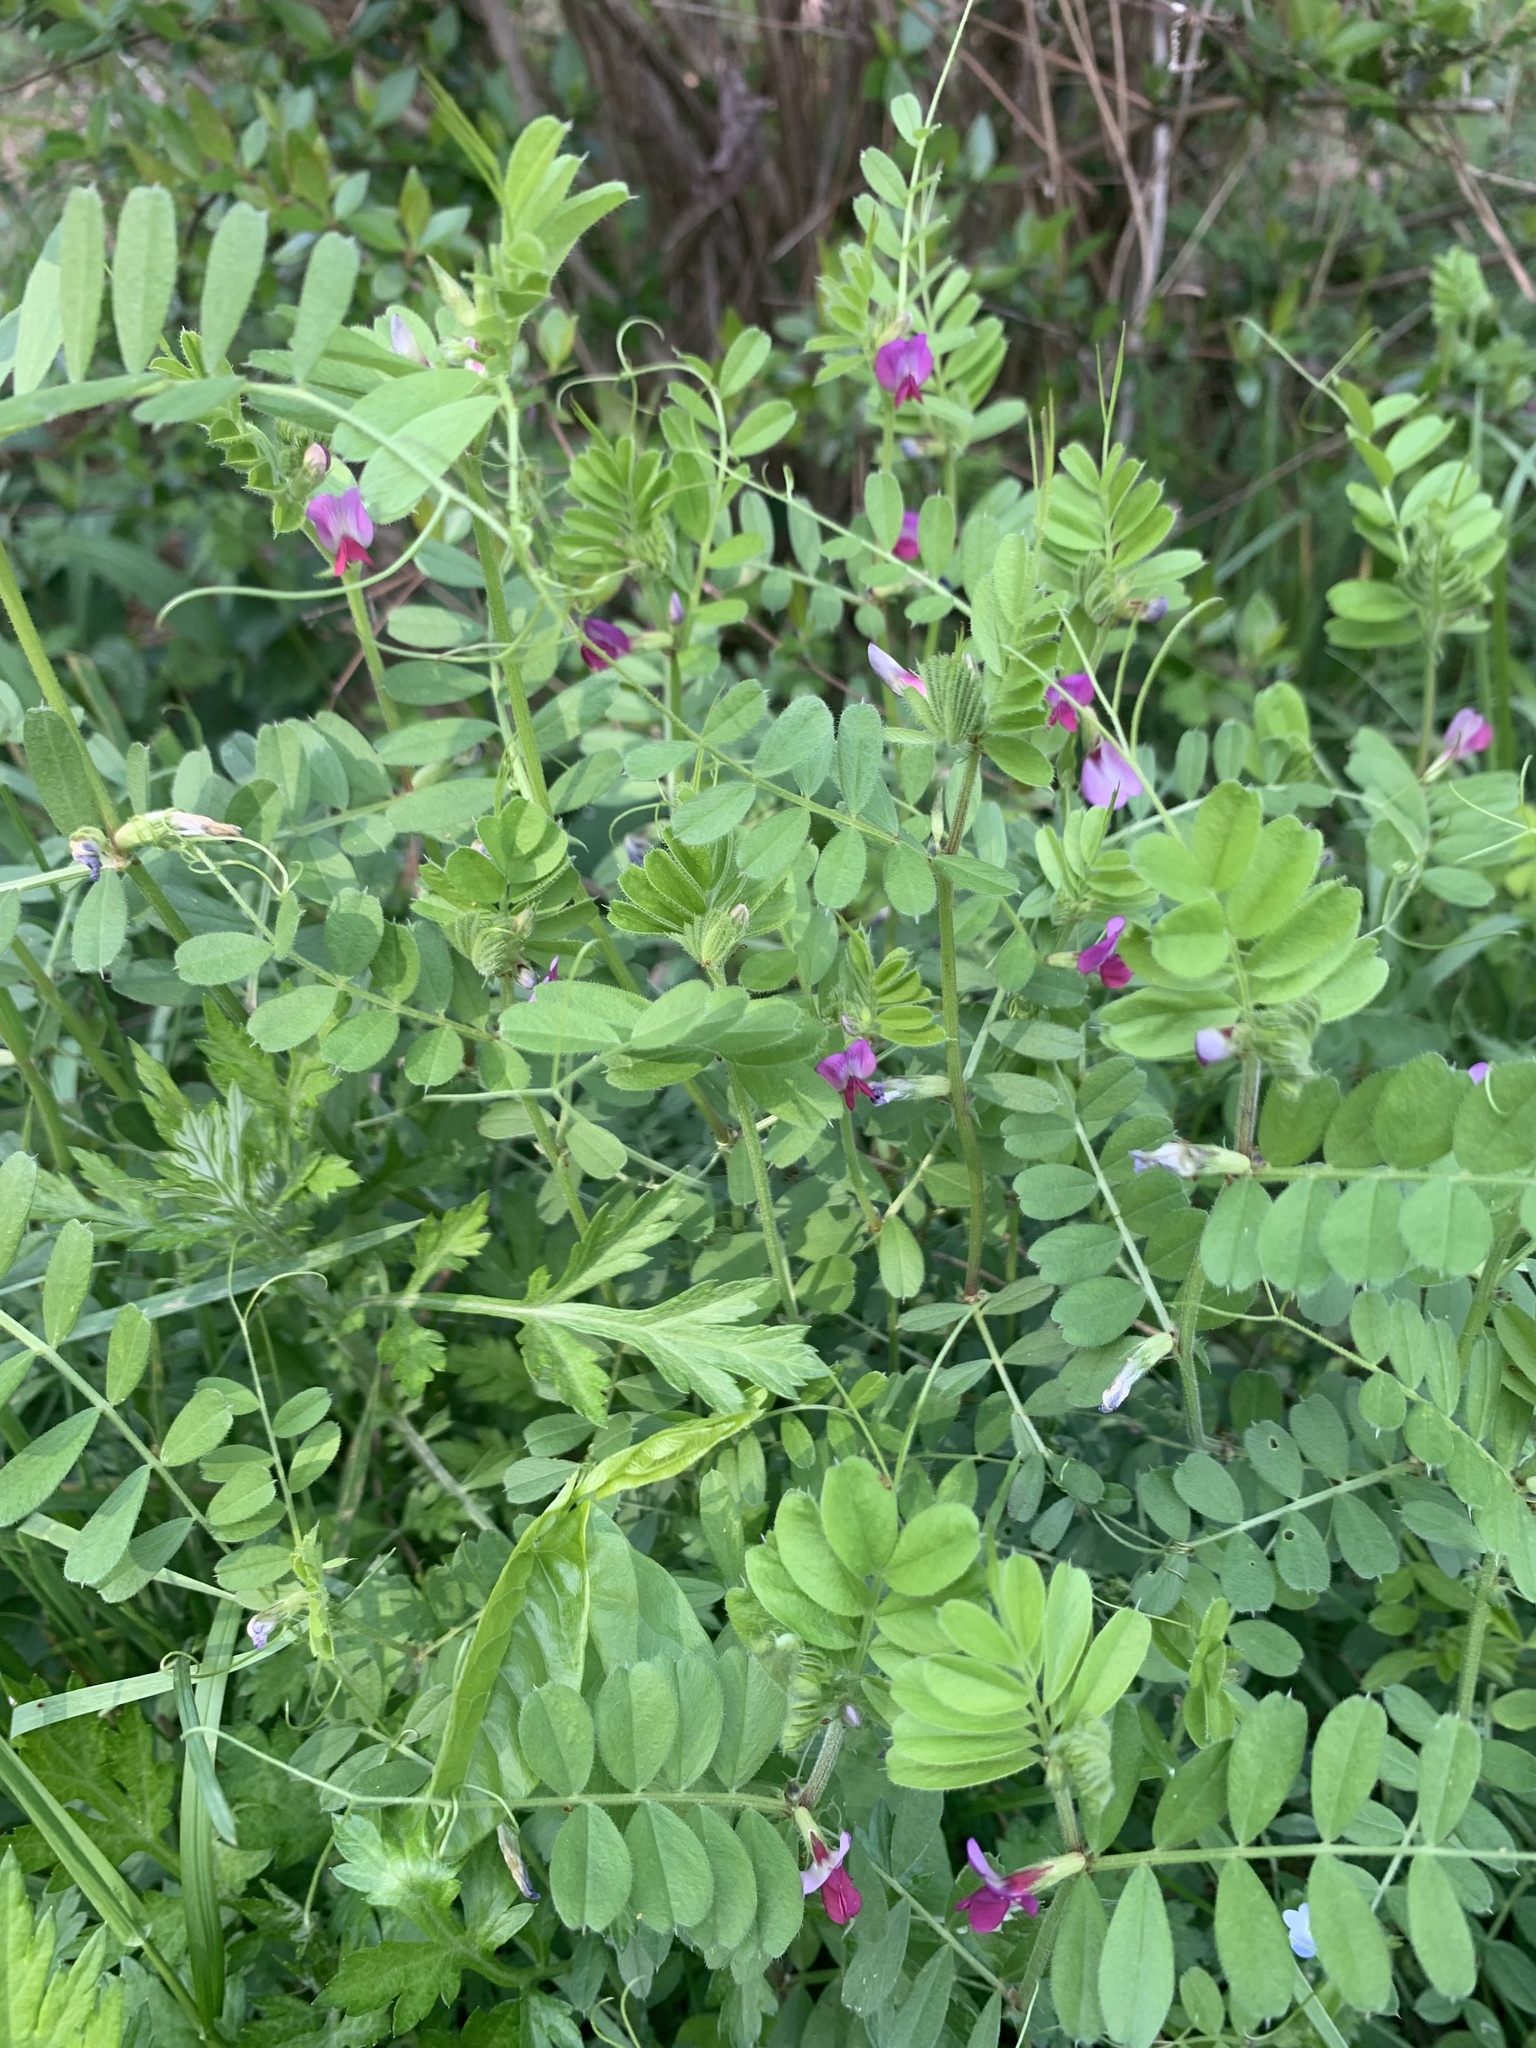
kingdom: Plantae
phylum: Tracheophyta
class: Magnoliopsida
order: Fabales
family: Fabaceae
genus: Vicia
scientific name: Vicia sativa
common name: Garden vetch
